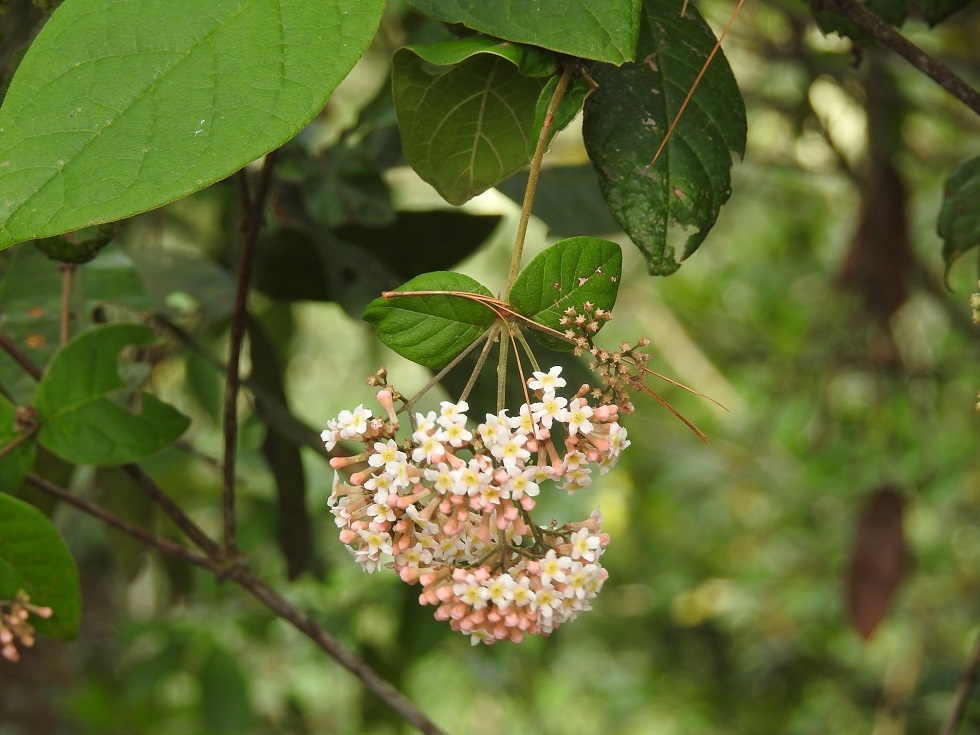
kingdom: Plantae
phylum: Tracheophyta
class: Magnoliopsida
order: Gentianales
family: Rubiaceae
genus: Rogiera
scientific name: Rogiera amoena
